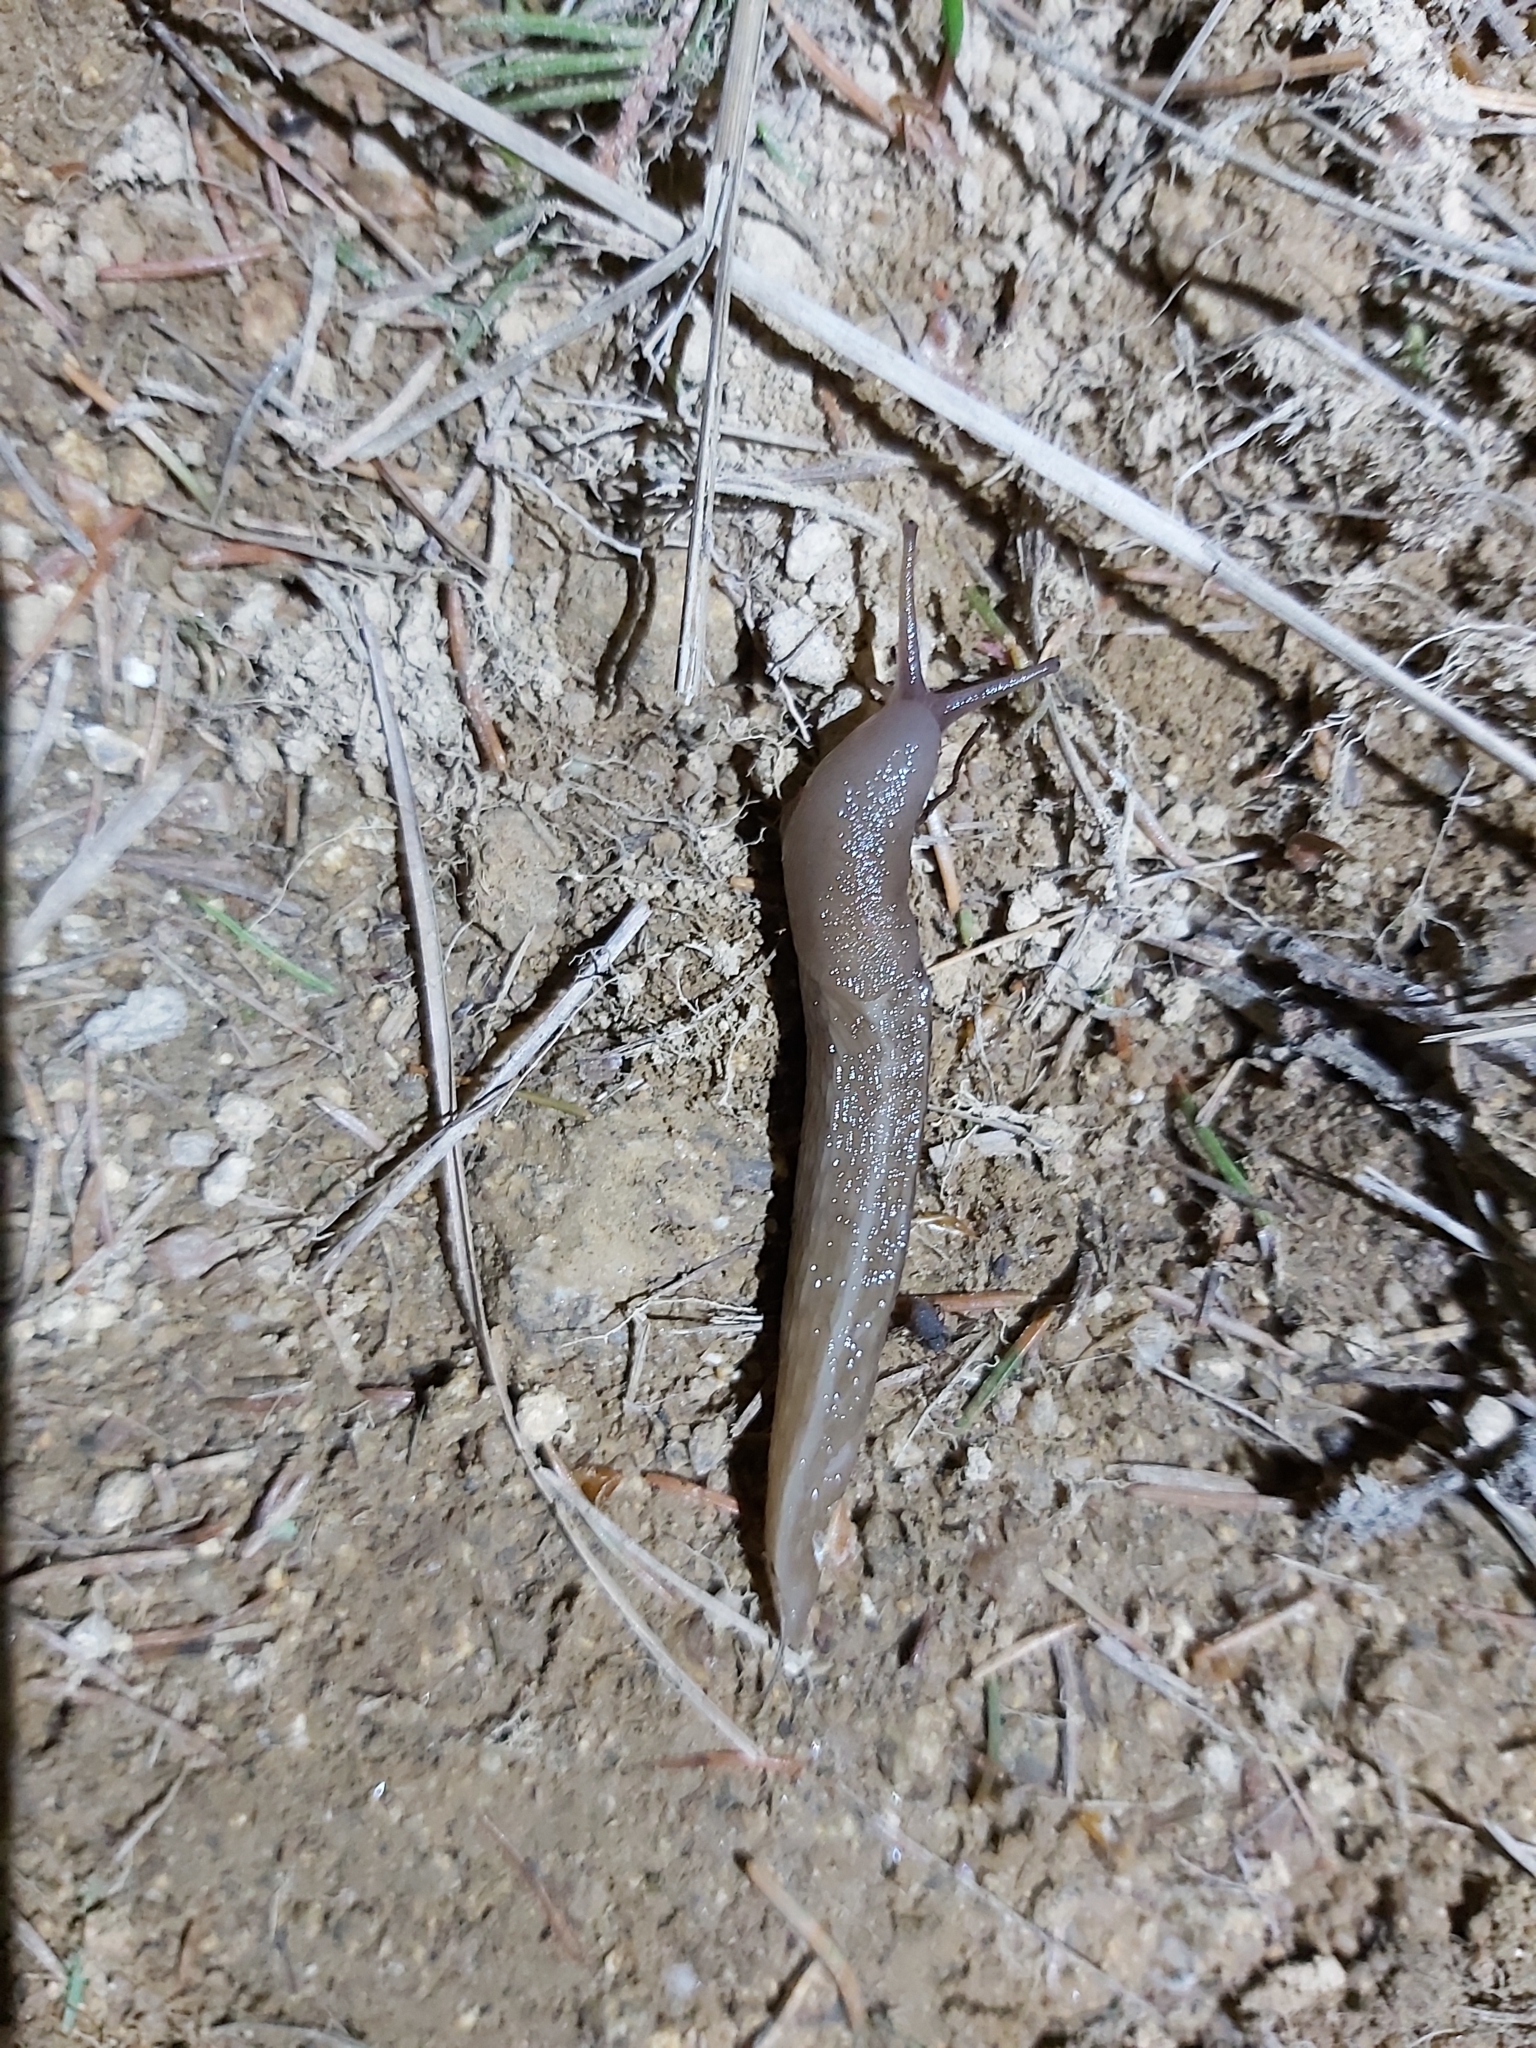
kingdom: Animalia
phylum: Mollusca
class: Gastropoda
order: Stylommatophora
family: Limacidae
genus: Limax
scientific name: Limax cinereoniger
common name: Ash-black slug
